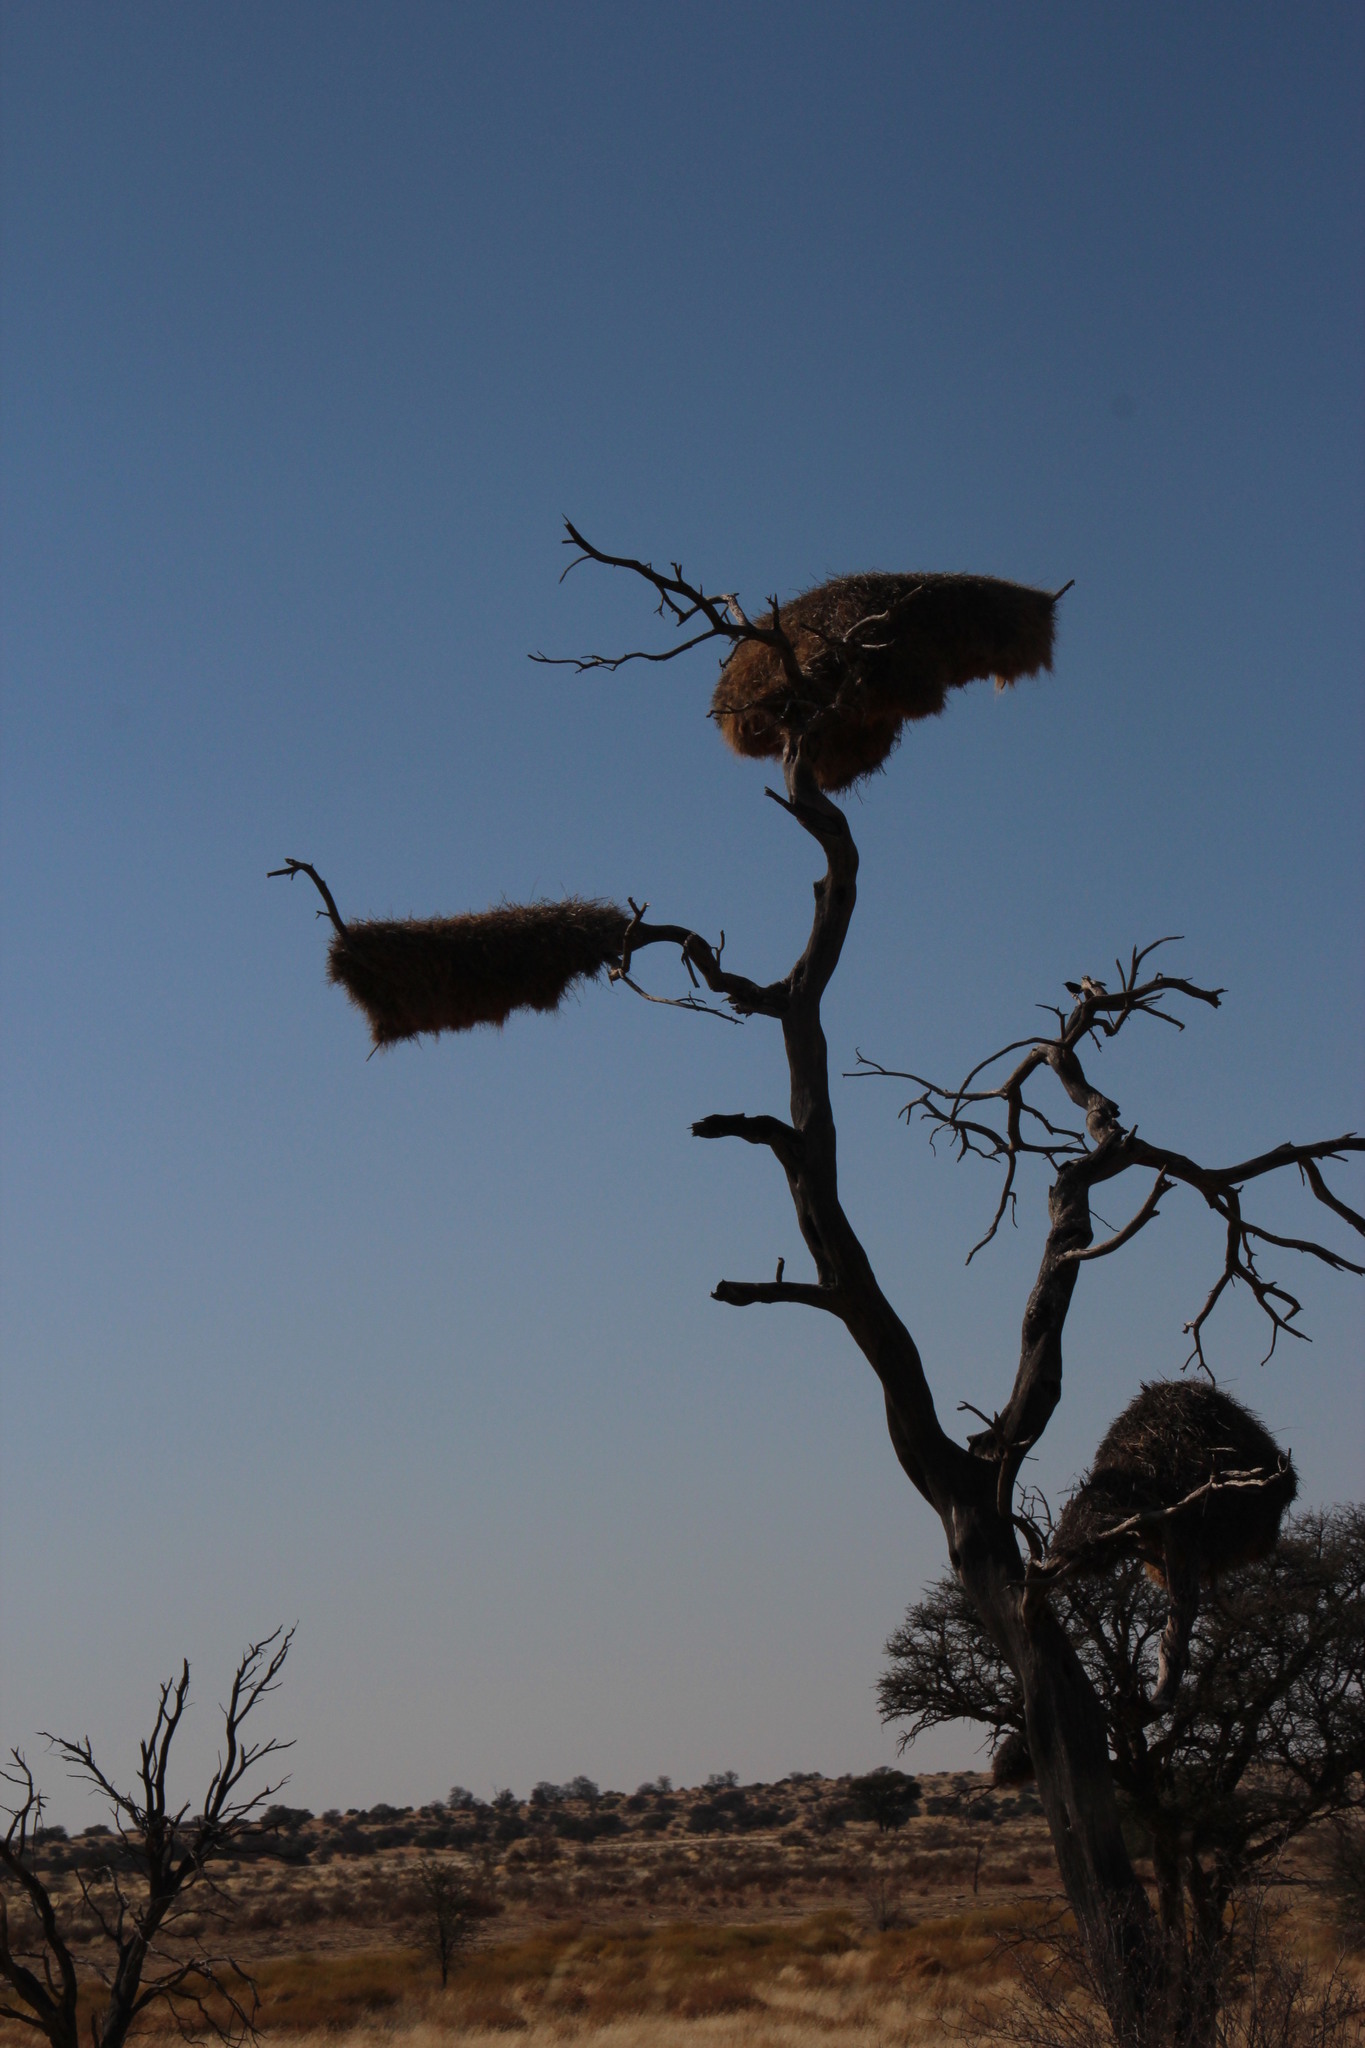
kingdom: Animalia
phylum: Chordata
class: Aves
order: Passeriformes
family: Passeridae
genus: Philetairus
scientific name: Philetairus socius
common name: Sociable weaver
